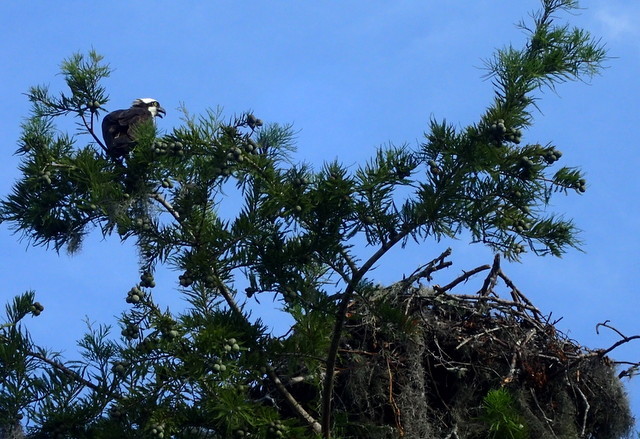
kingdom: Animalia
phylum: Chordata
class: Aves
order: Accipitriformes
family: Pandionidae
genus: Pandion
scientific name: Pandion haliaetus
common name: Osprey
